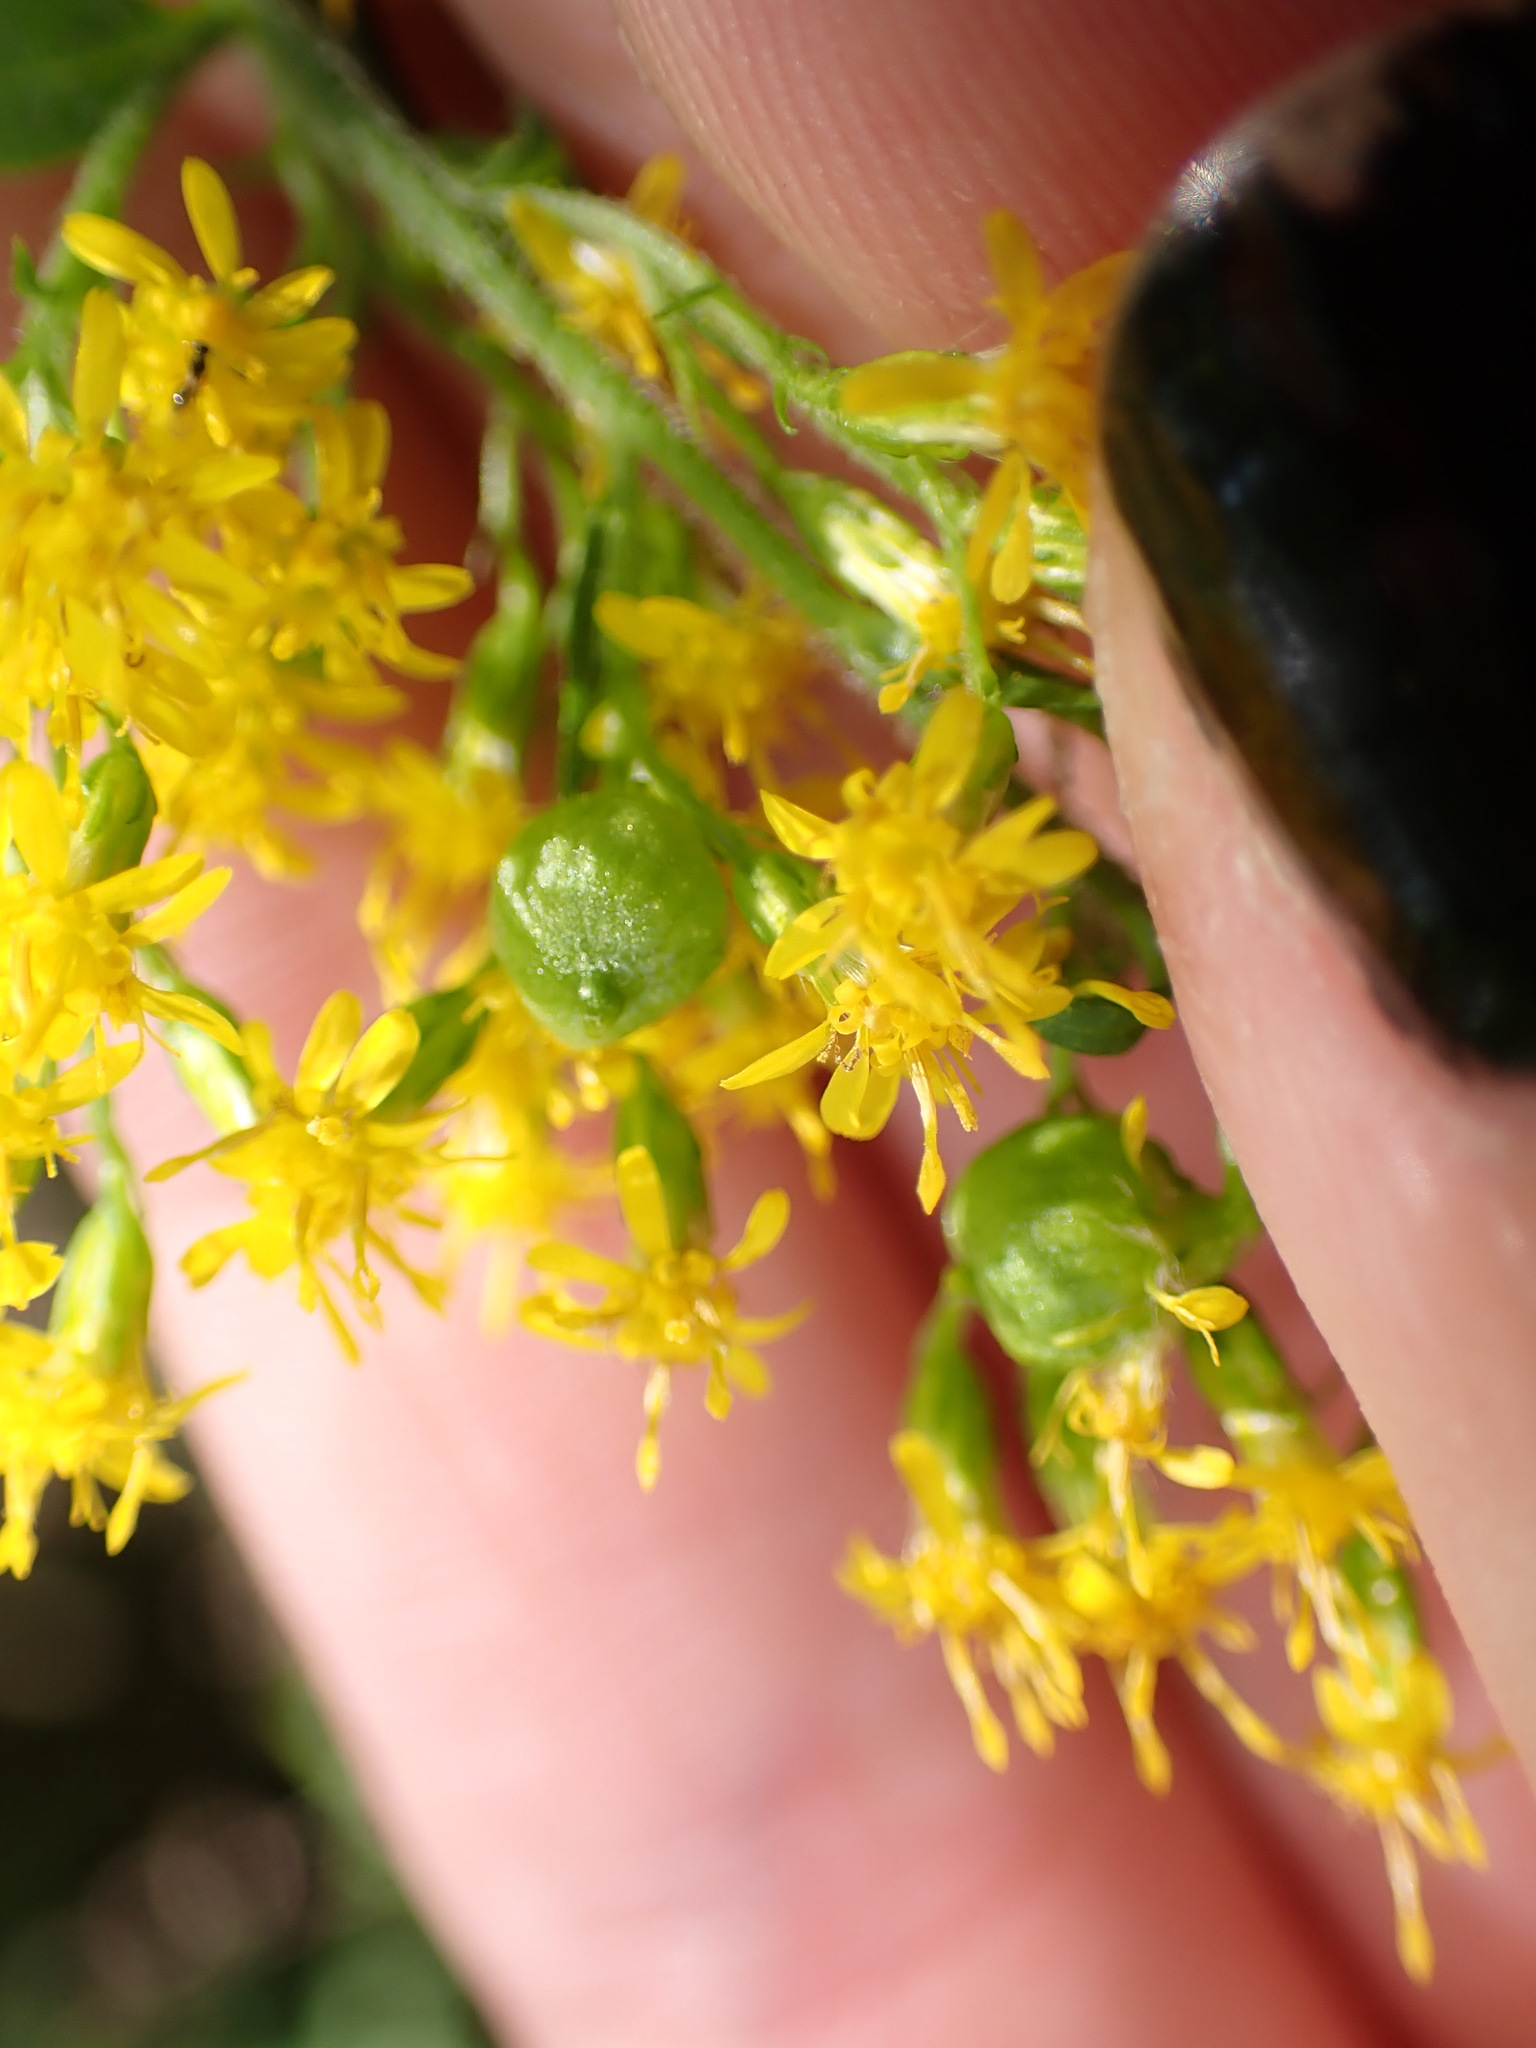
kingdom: Animalia
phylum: Arthropoda
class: Insecta
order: Diptera
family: Cecidomyiidae
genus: Schizomyia
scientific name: Schizomyia racemicola
